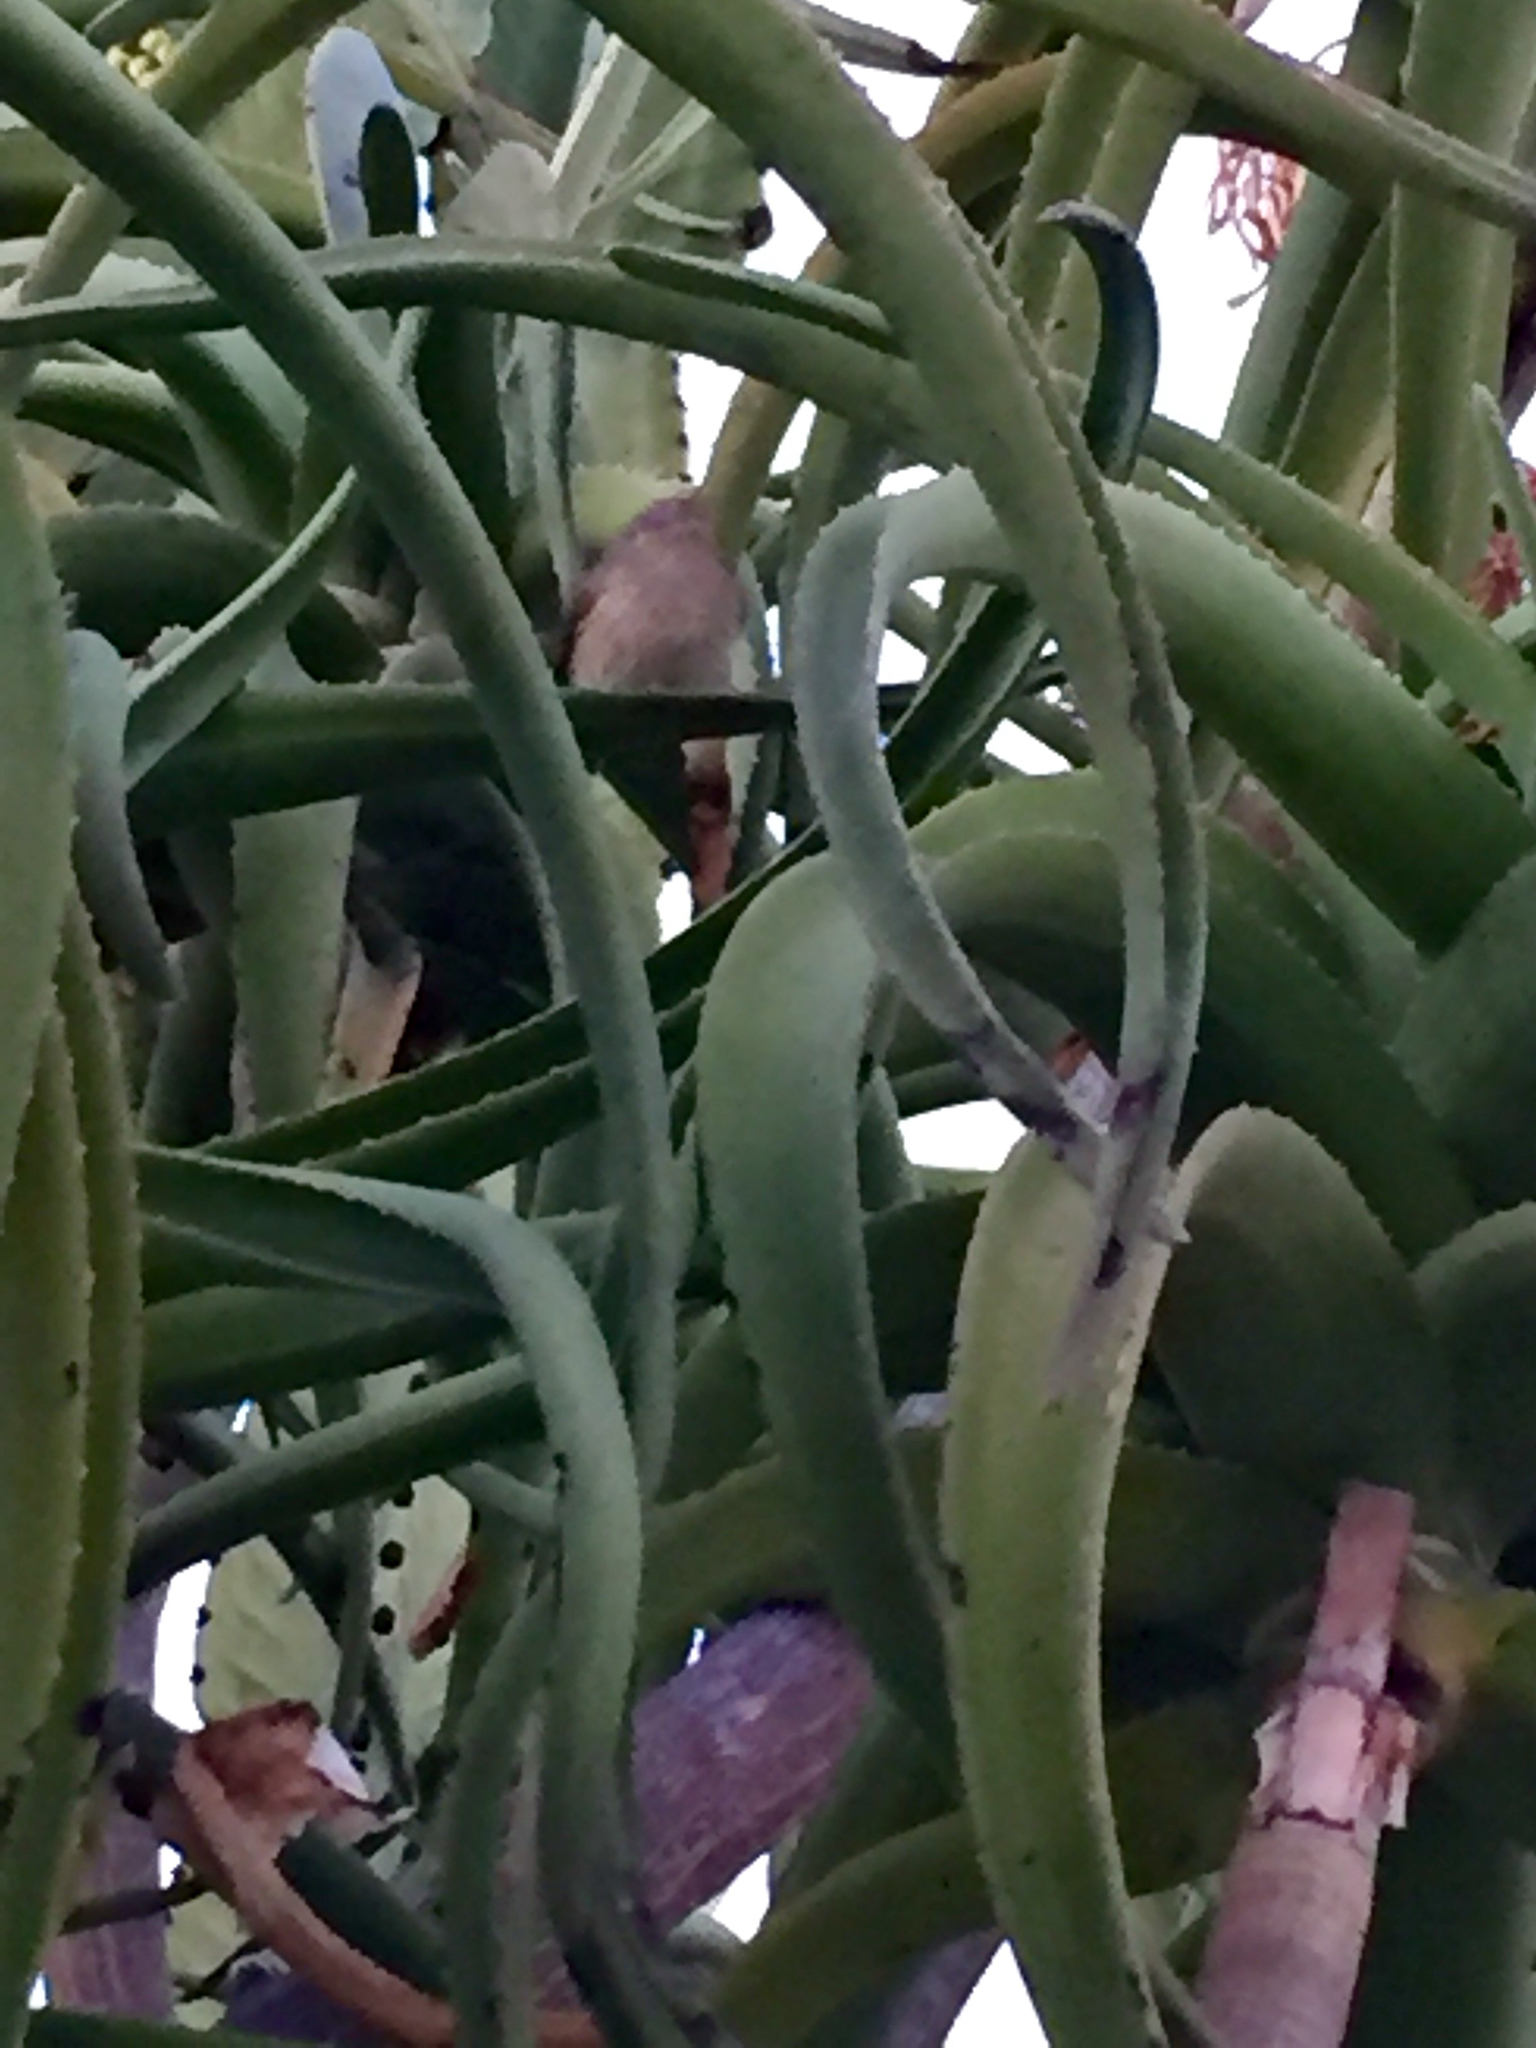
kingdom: Animalia
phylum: Chordata
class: Aves
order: Passeriformes
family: Regulidae
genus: Regulus
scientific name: Regulus calendula
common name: Ruby-crowned kinglet
